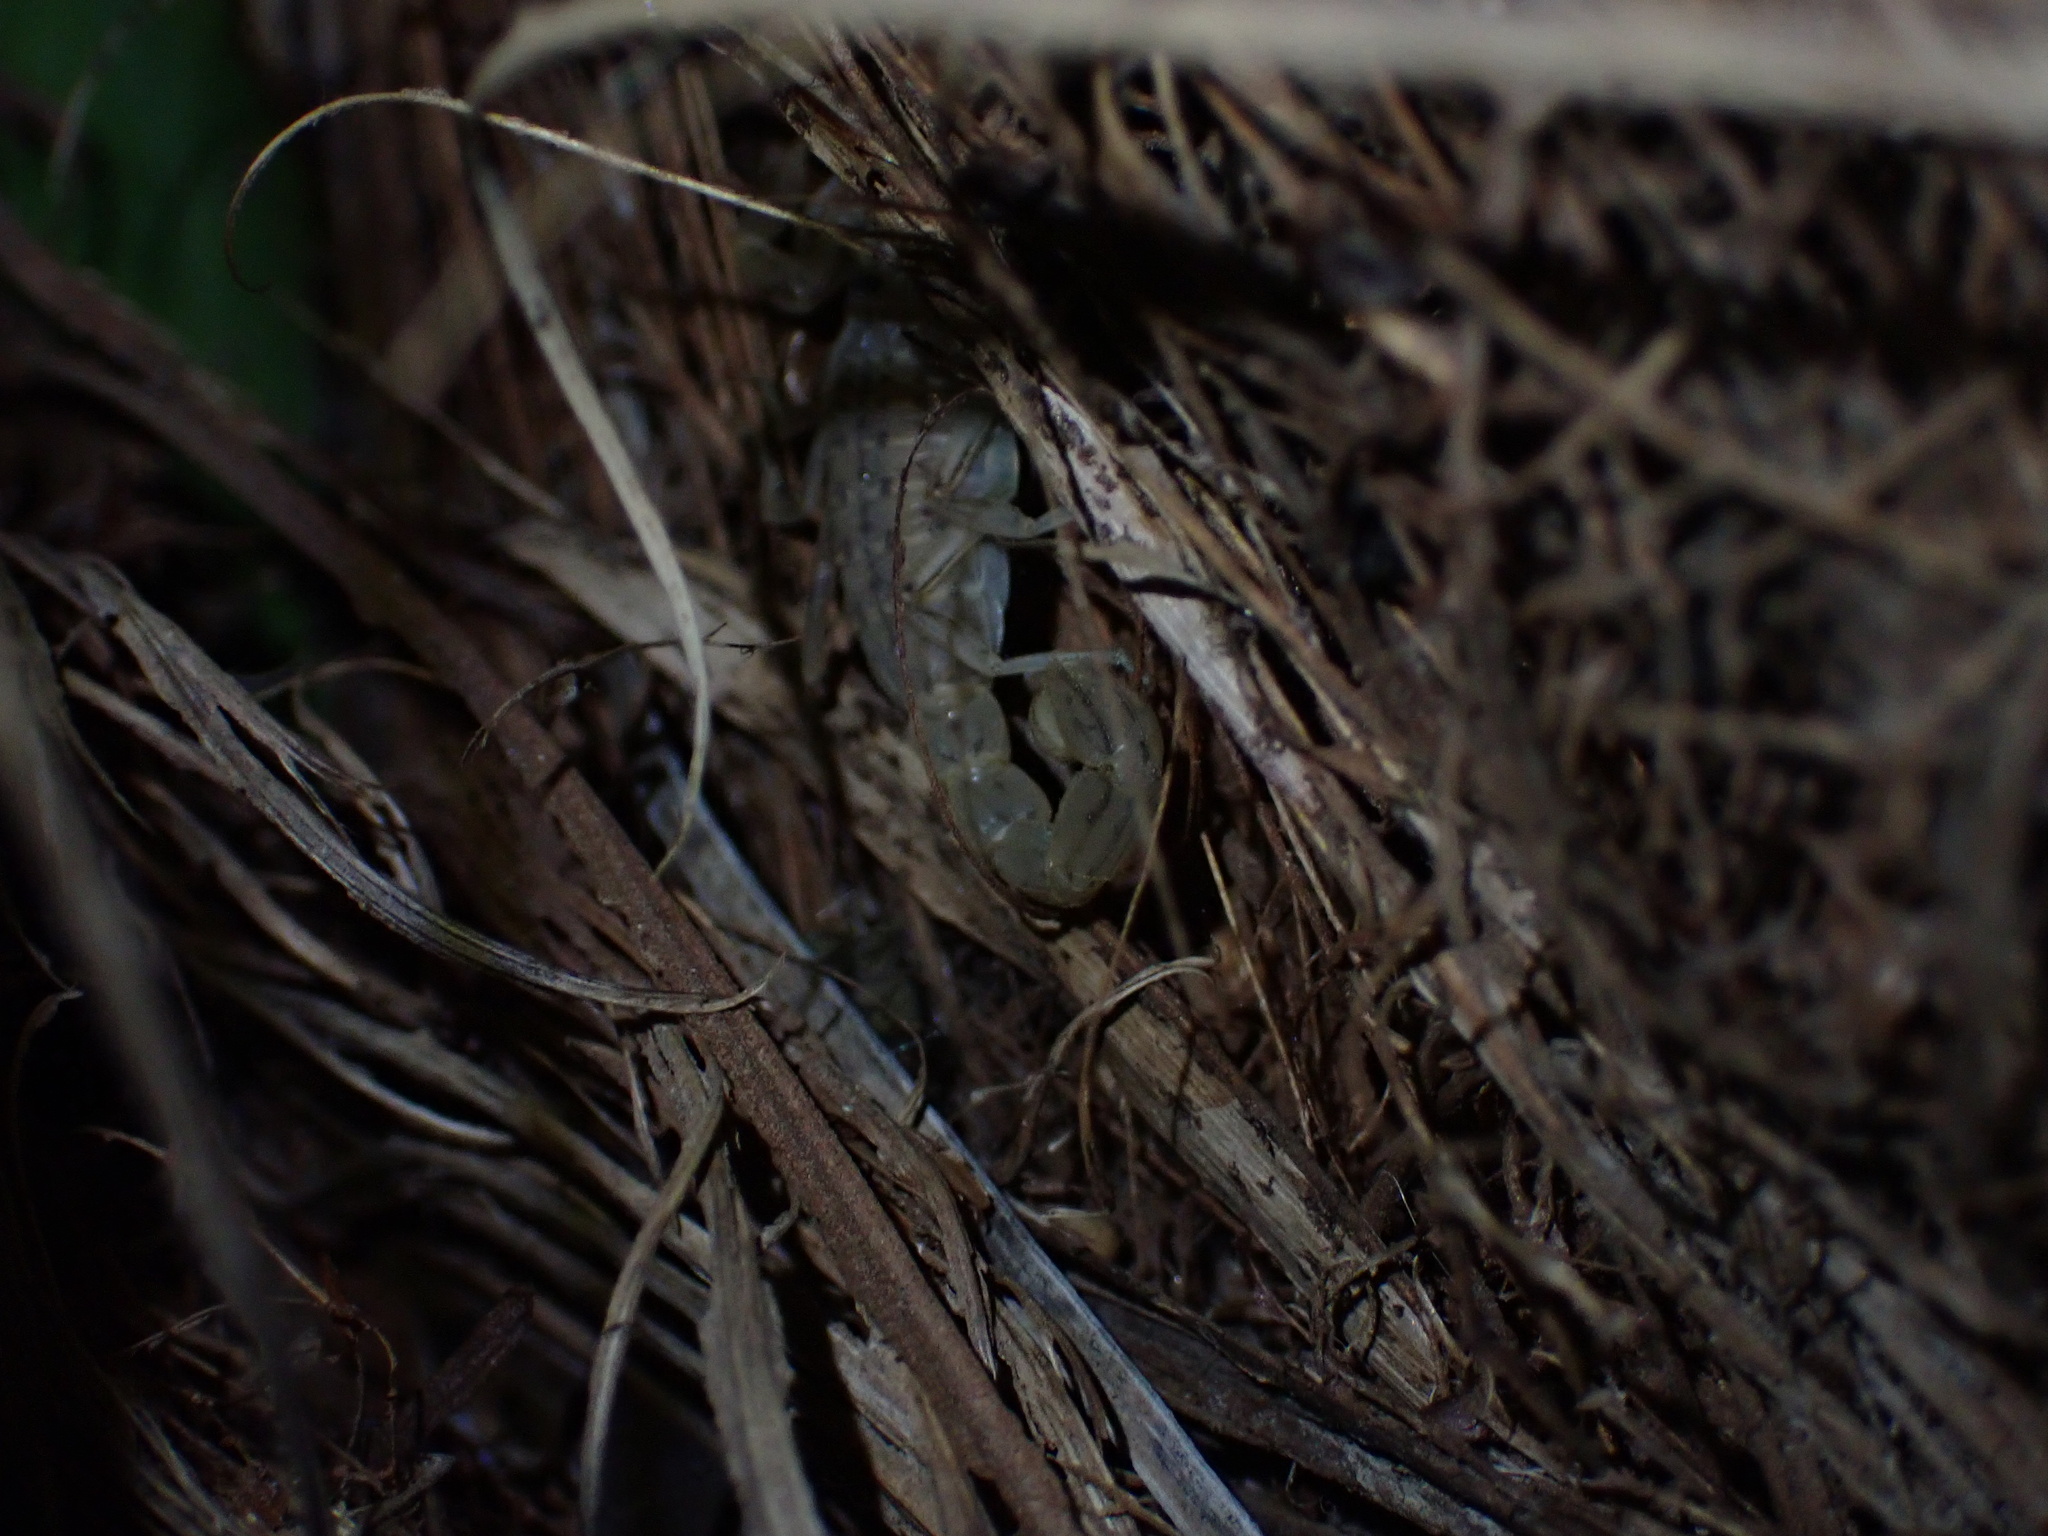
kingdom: Animalia
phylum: Arthropoda
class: Arachnida
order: Scorpiones
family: Buthidae
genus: Mesobuthus
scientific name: Mesobuthus mirshamsii
